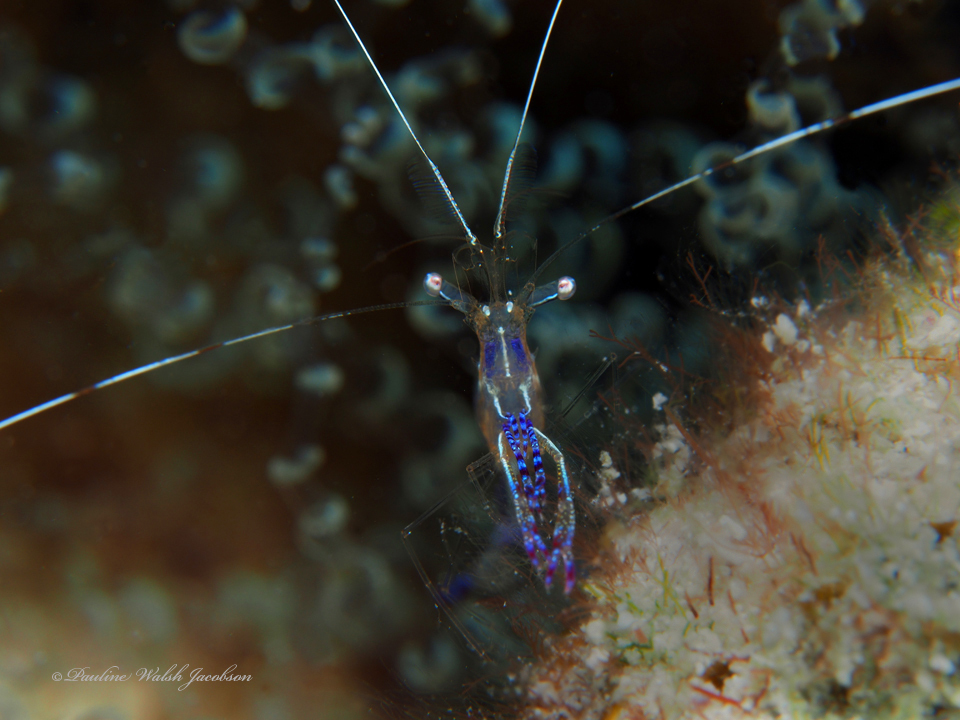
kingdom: Animalia
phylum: Arthropoda
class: Malacostraca
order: Decapoda
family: Palaemonidae
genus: Ancylomenes
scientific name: Ancylomenes pedersoni
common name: Pederson's cleaning shrimp
